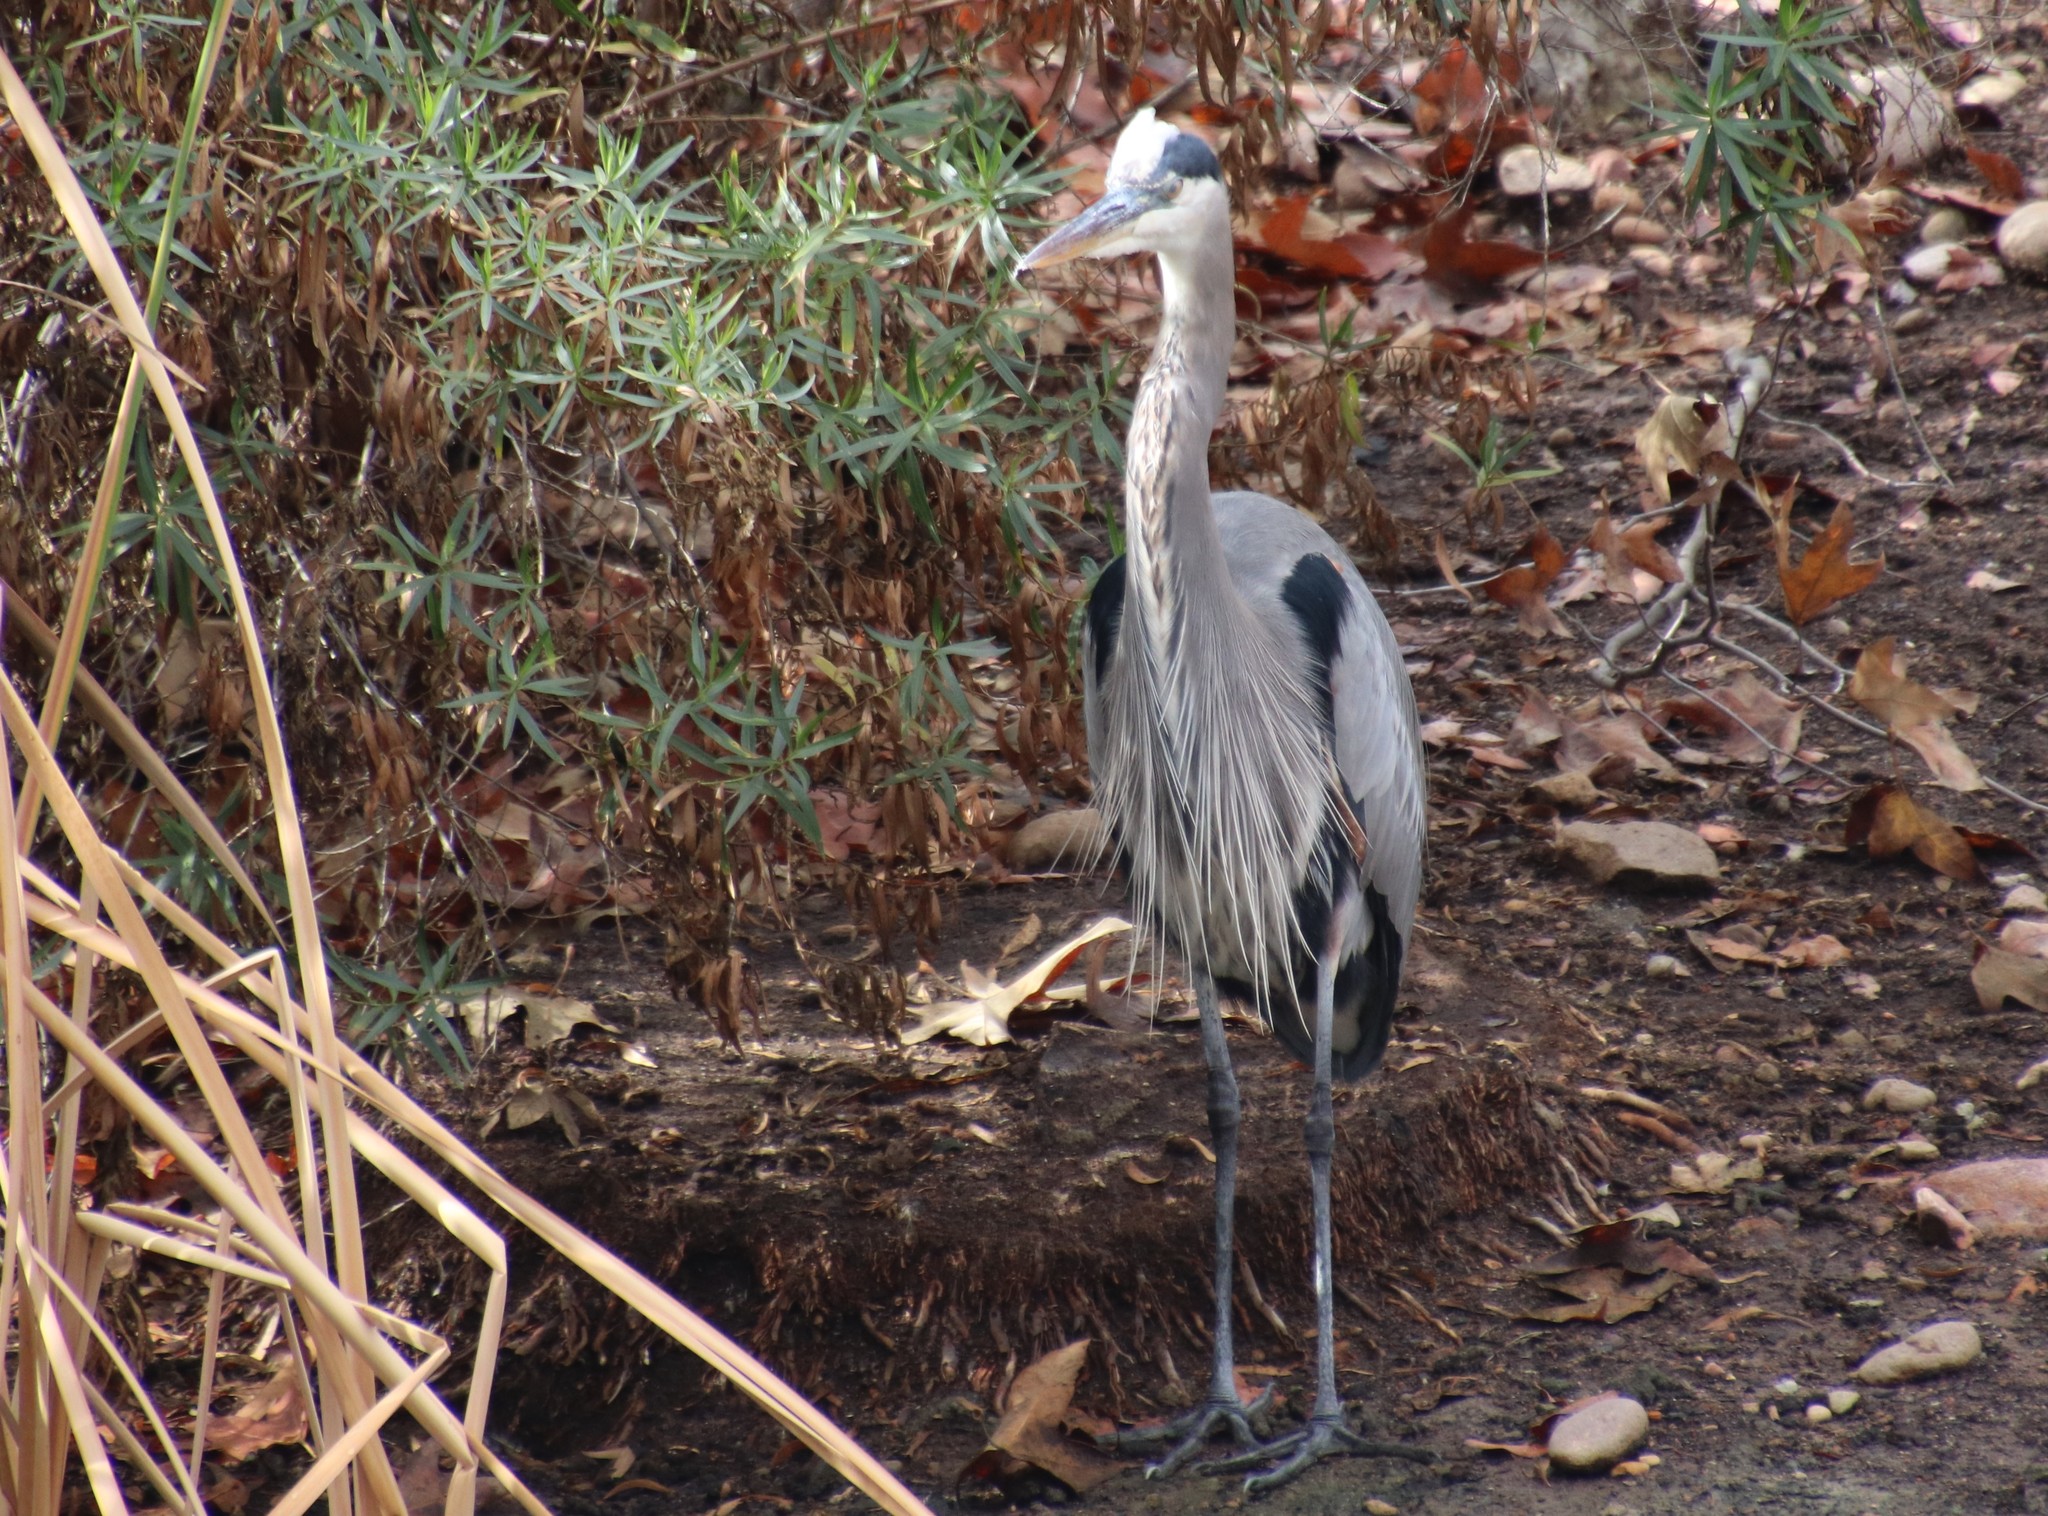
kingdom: Animalia
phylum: Chordata
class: Aves
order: Pelecaniformes
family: Ardeidae
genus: Ardea
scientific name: Ardea herodias
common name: Great blue heron
